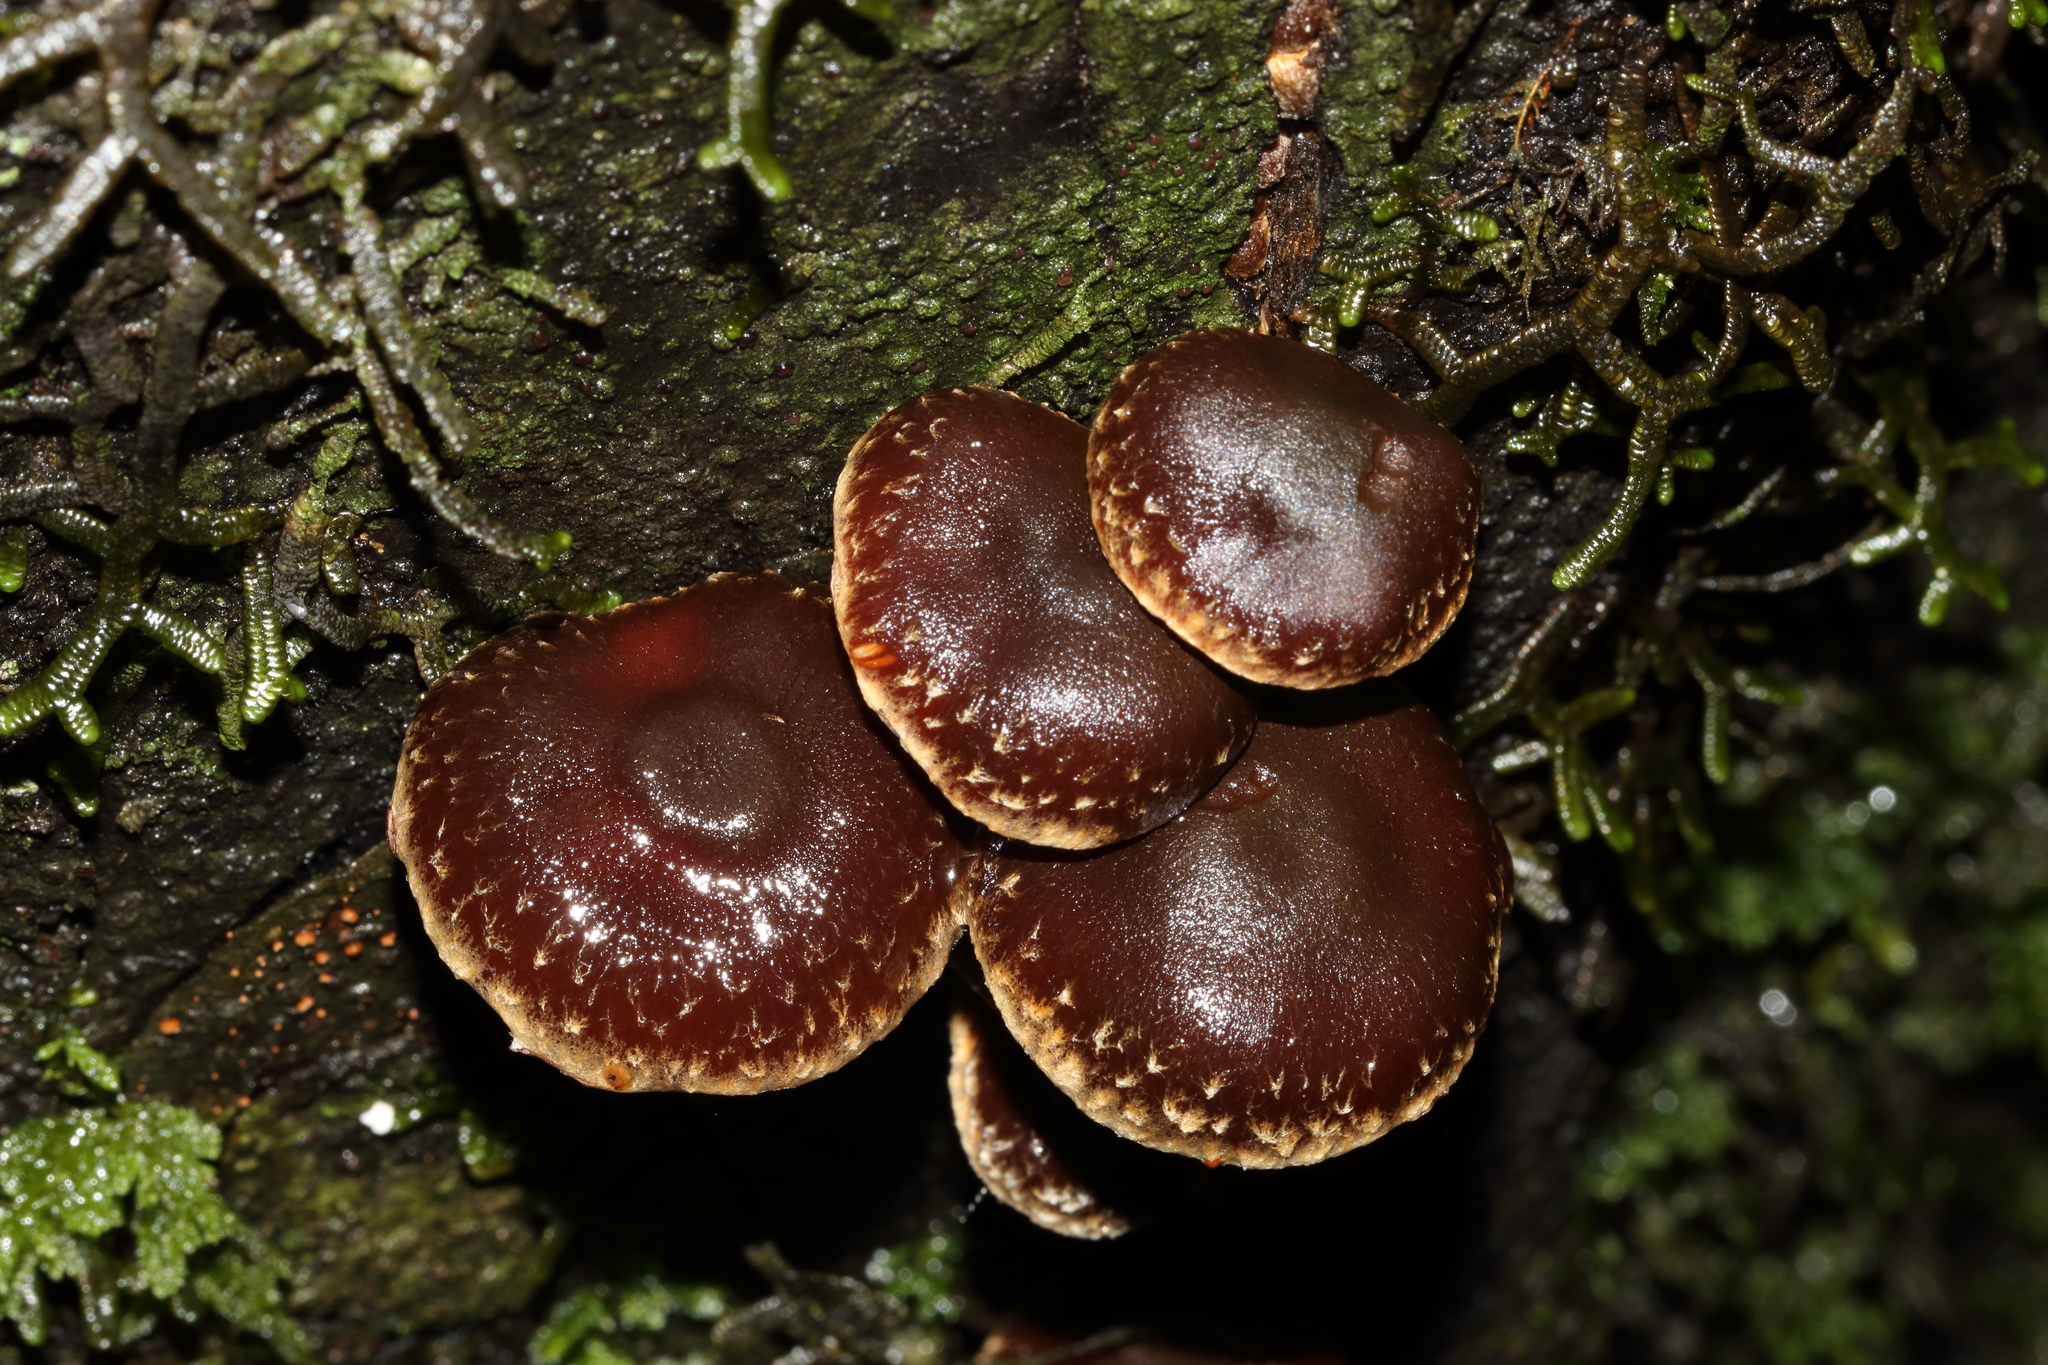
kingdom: Fungi
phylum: Basidiomycota
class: Agaricomycetes
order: Agaricales
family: Strophariaceae
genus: Hypholoma
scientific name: Hypholoma brunneum
